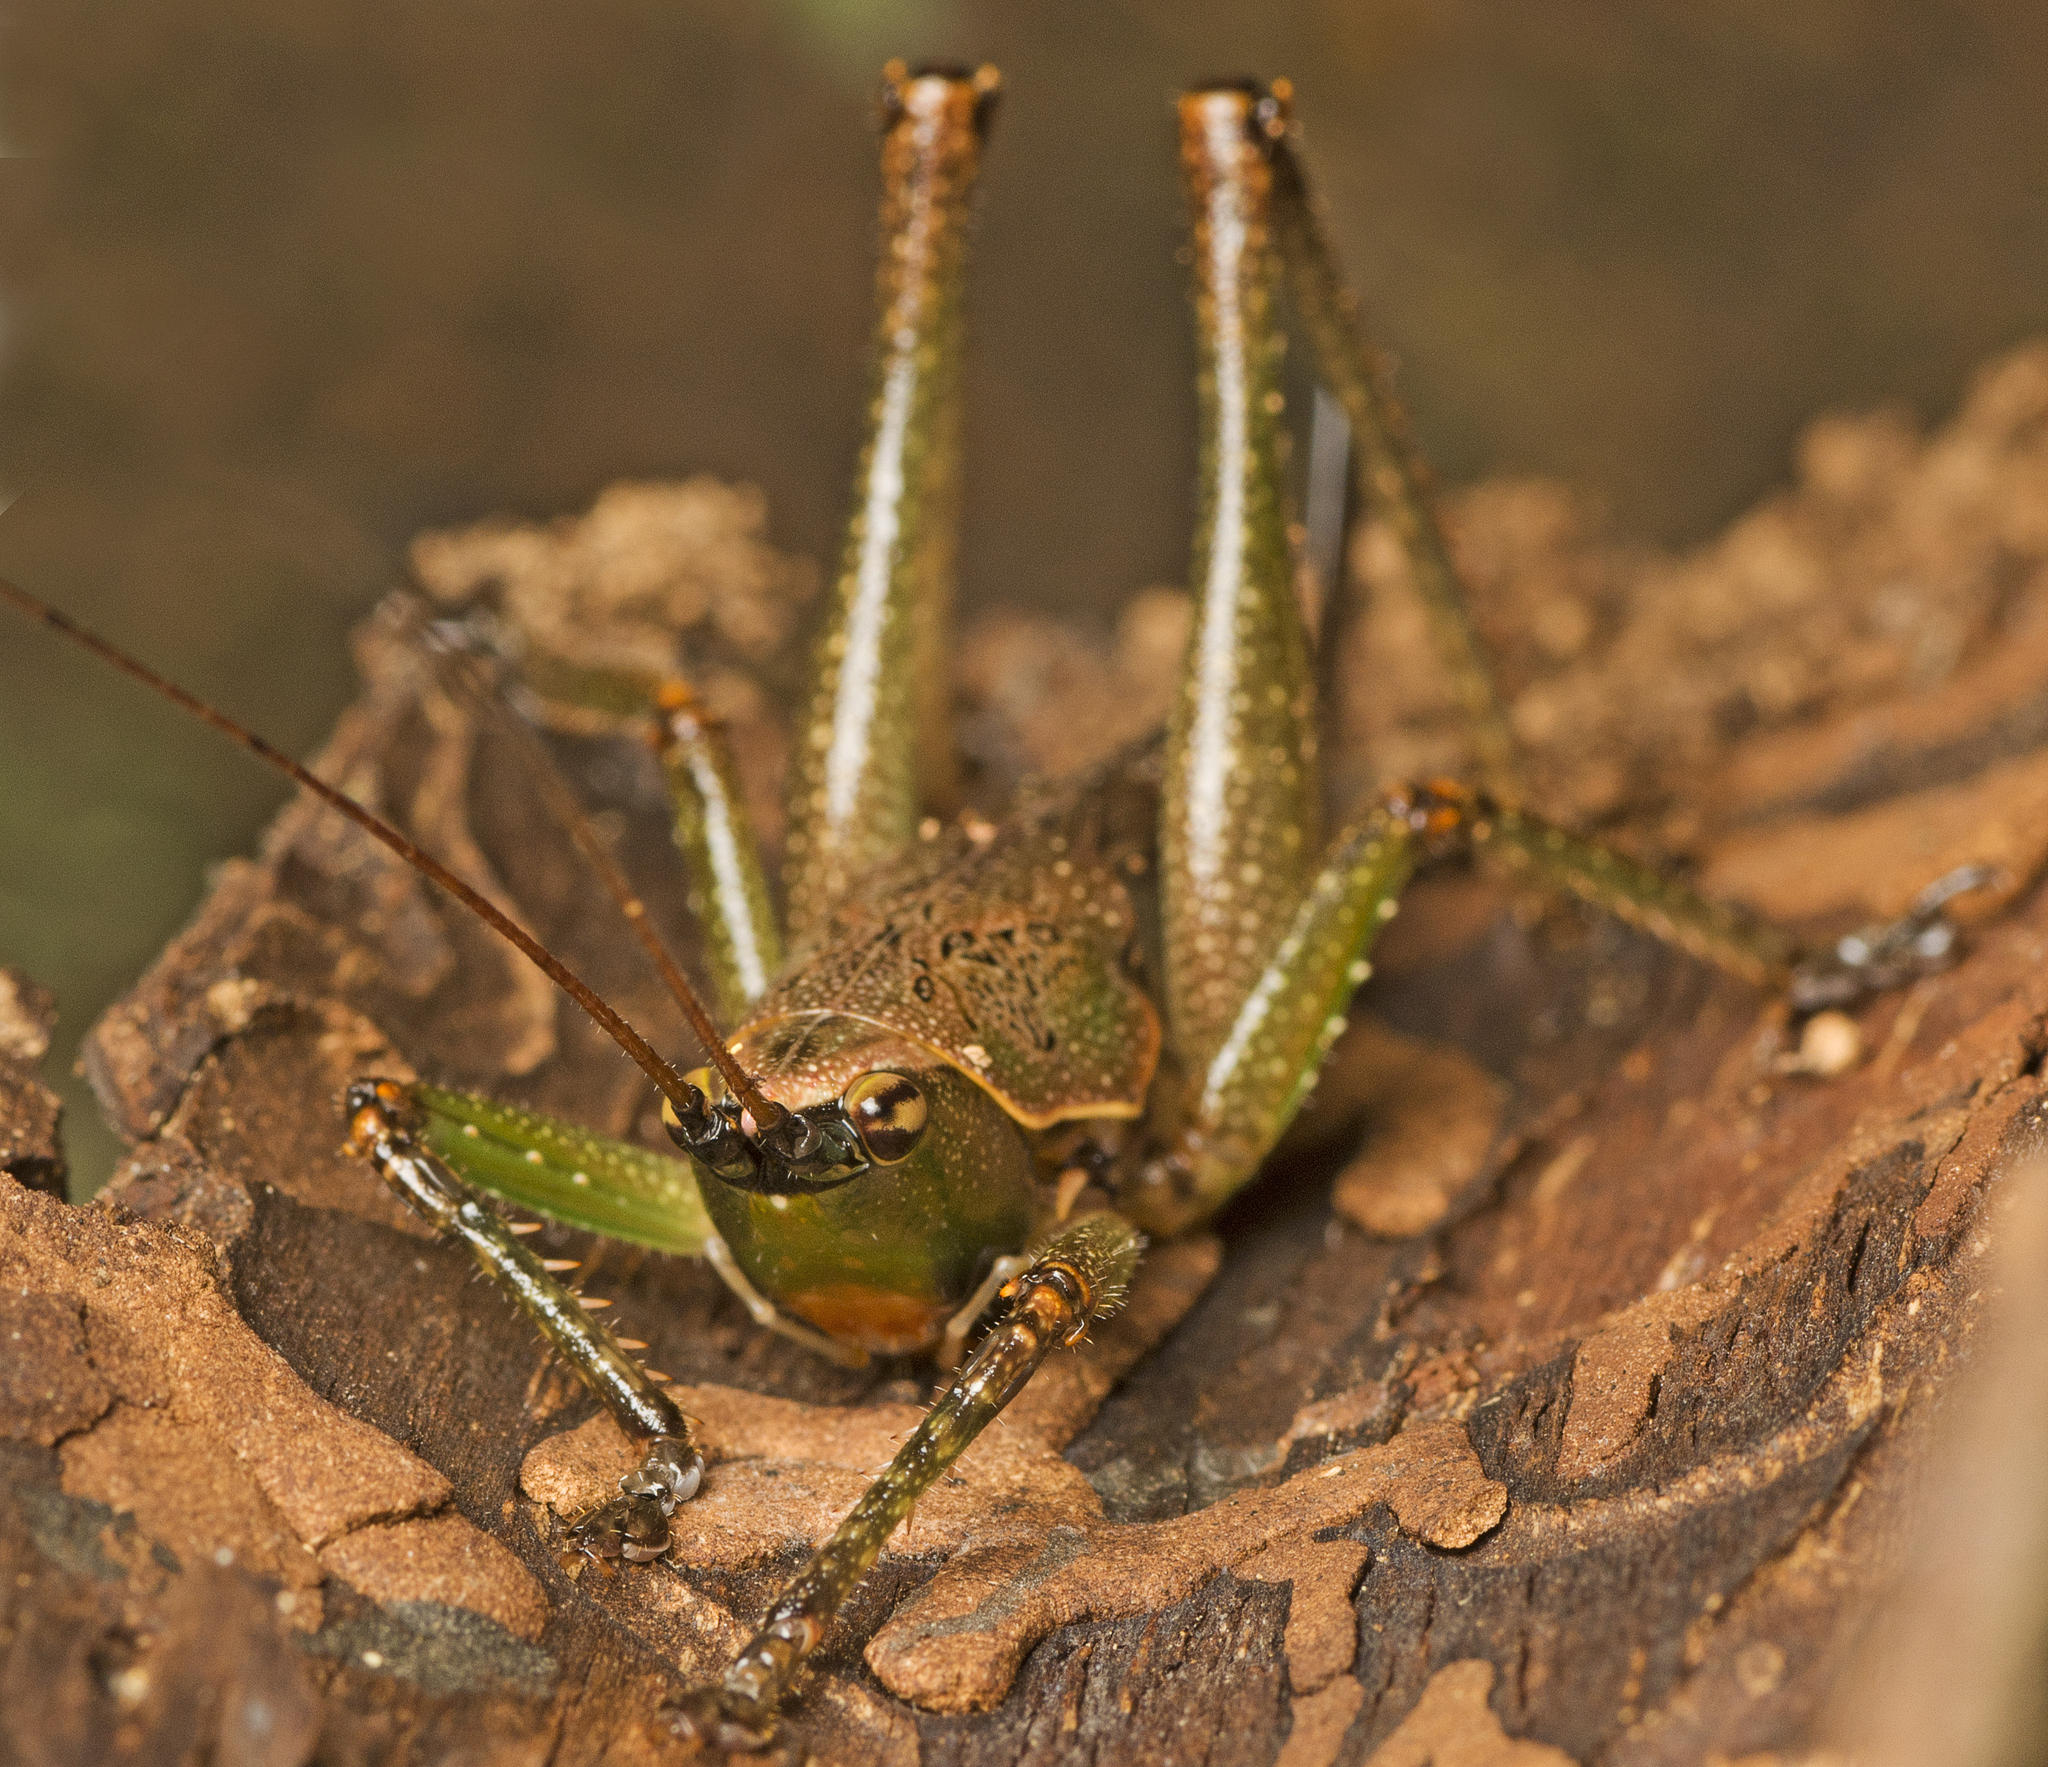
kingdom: Animalia
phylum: Arthropoda
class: Insecta
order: Orthoptera
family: Tettigoniidae
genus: Austrosalomona
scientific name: Austrosalomona falcata
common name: Olive-green coastal katydid
